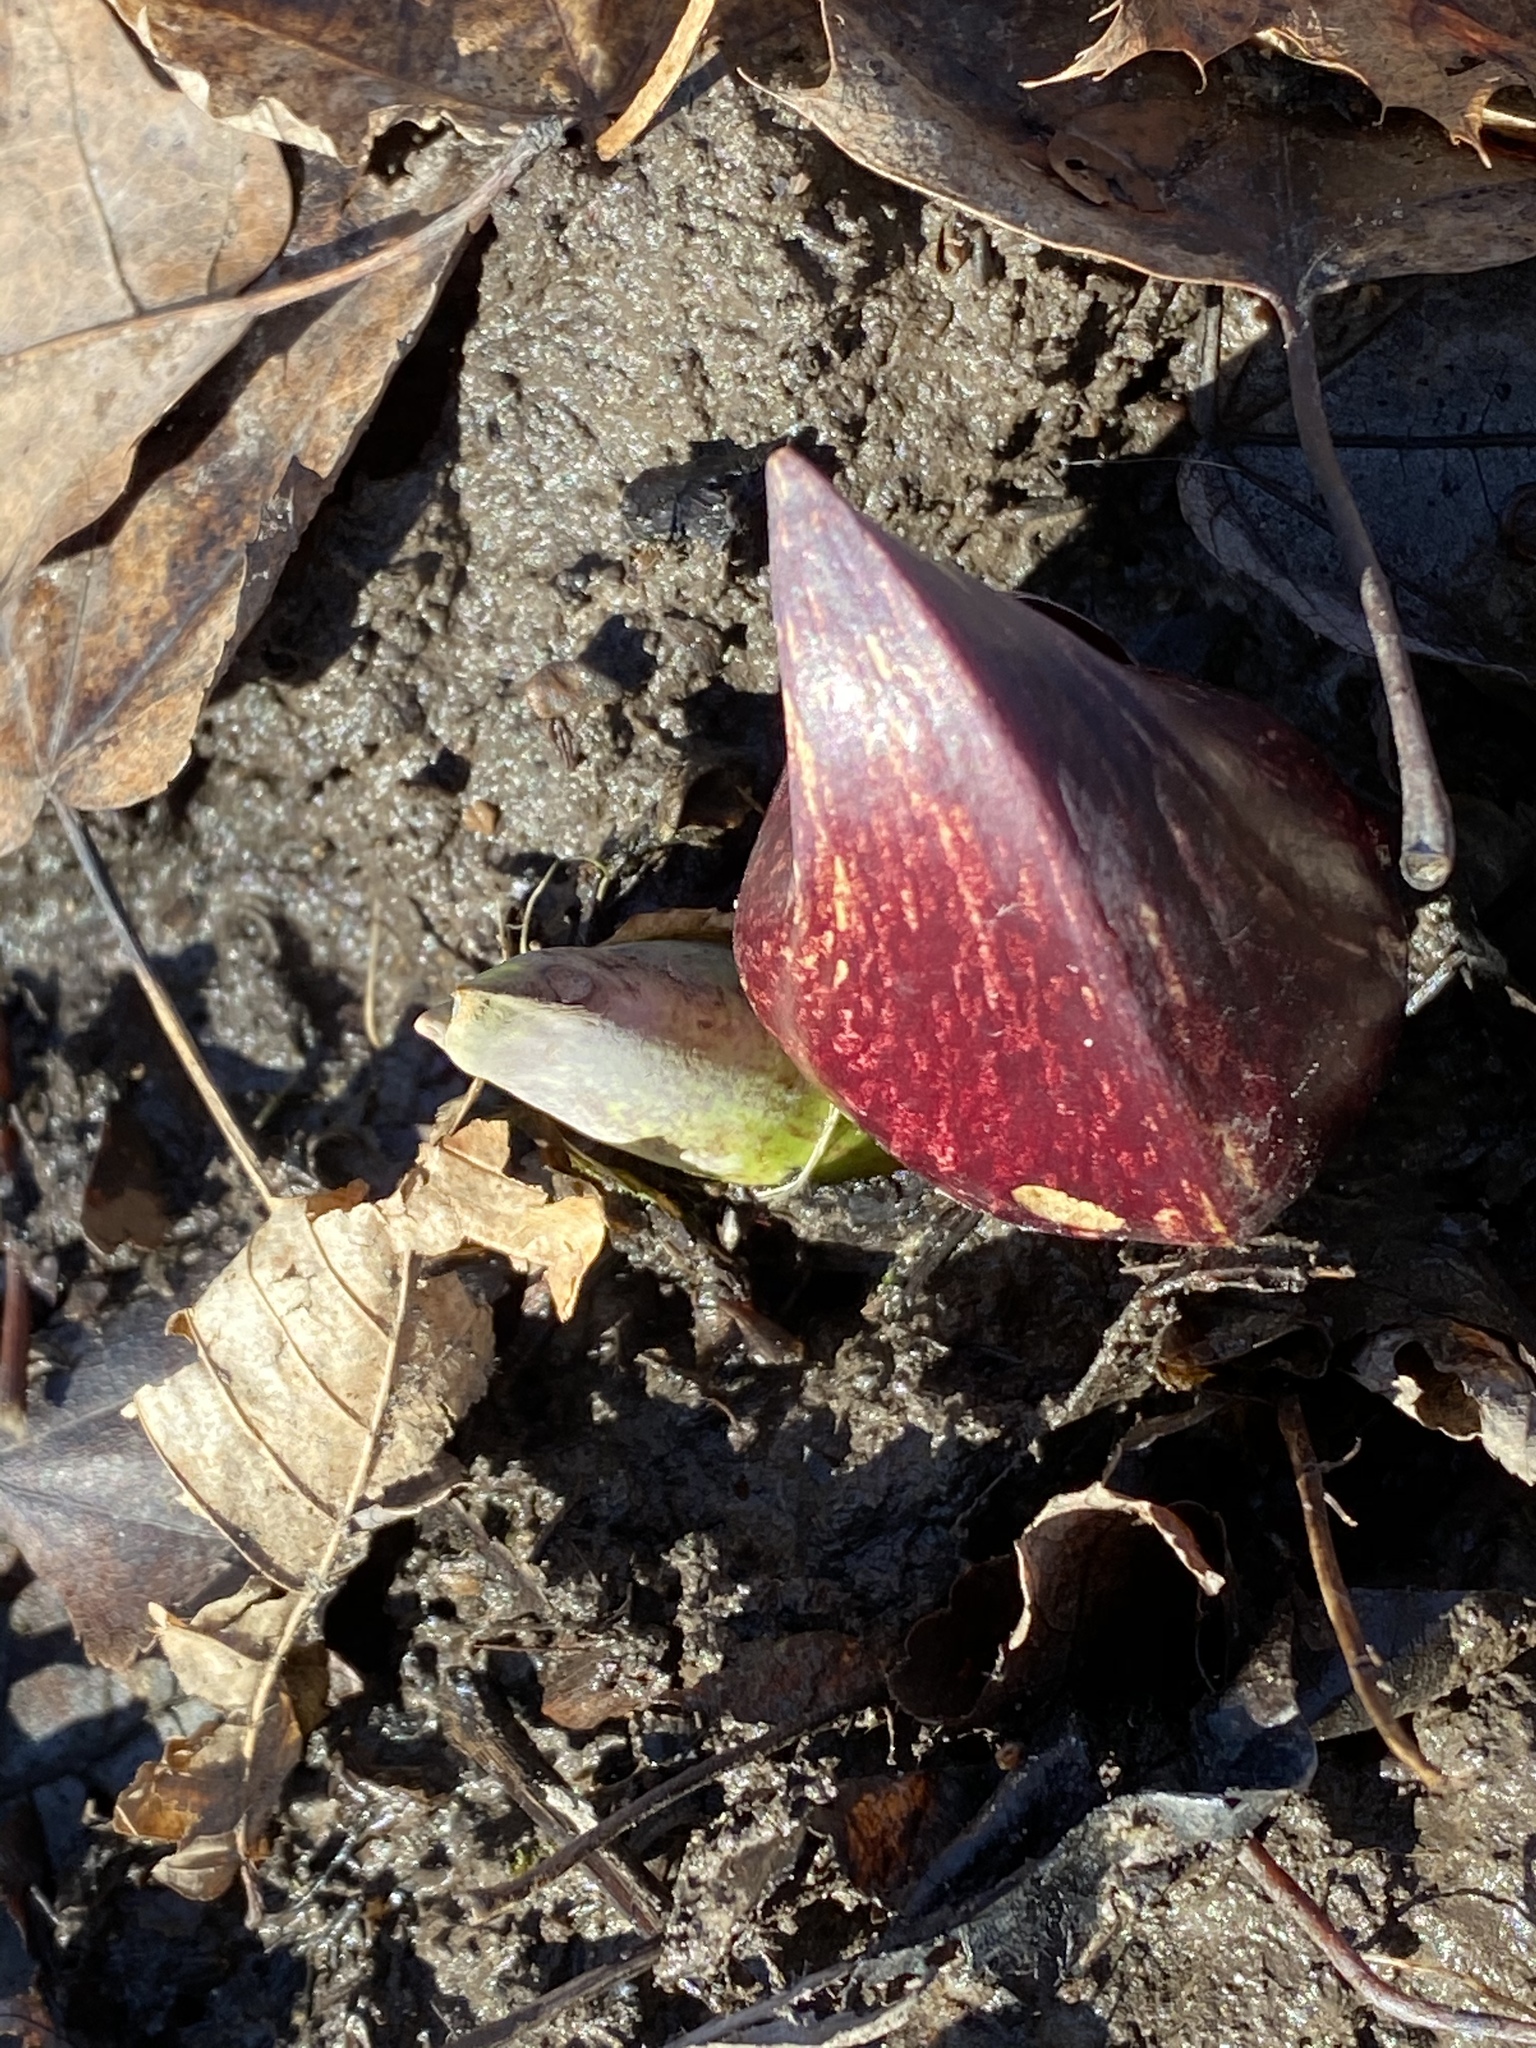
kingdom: Plantae
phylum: Tracheophyta
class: Liliopsida
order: Alismatales
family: Araceae
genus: Symplocarpus
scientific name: Symplocarpus foetidus
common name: Eastern skunk cabbage
